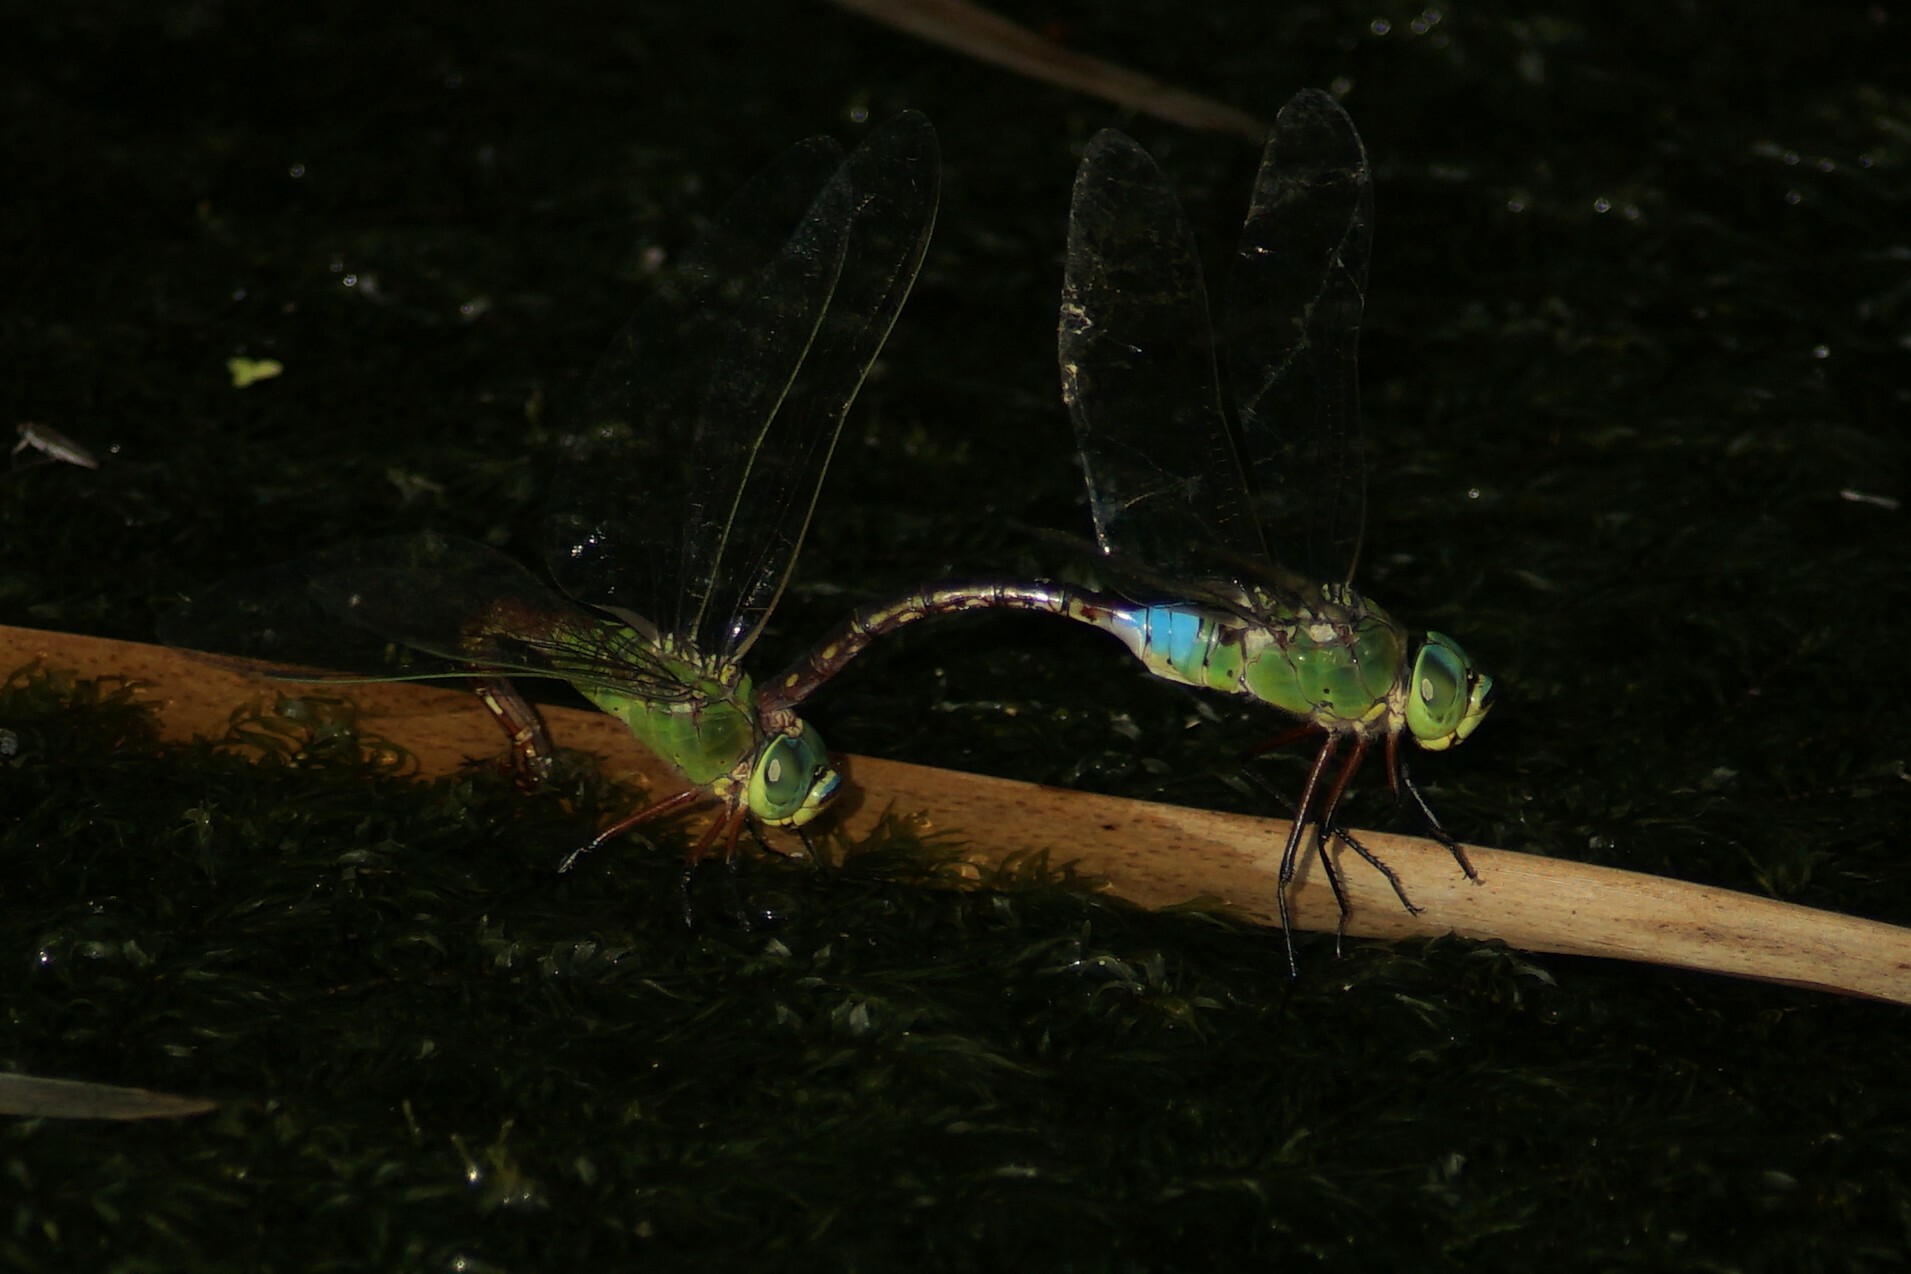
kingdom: Animalia
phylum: Arthropoda
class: Insecta
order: Odonata
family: Aeshnidae
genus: Anax
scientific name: Anax julius
